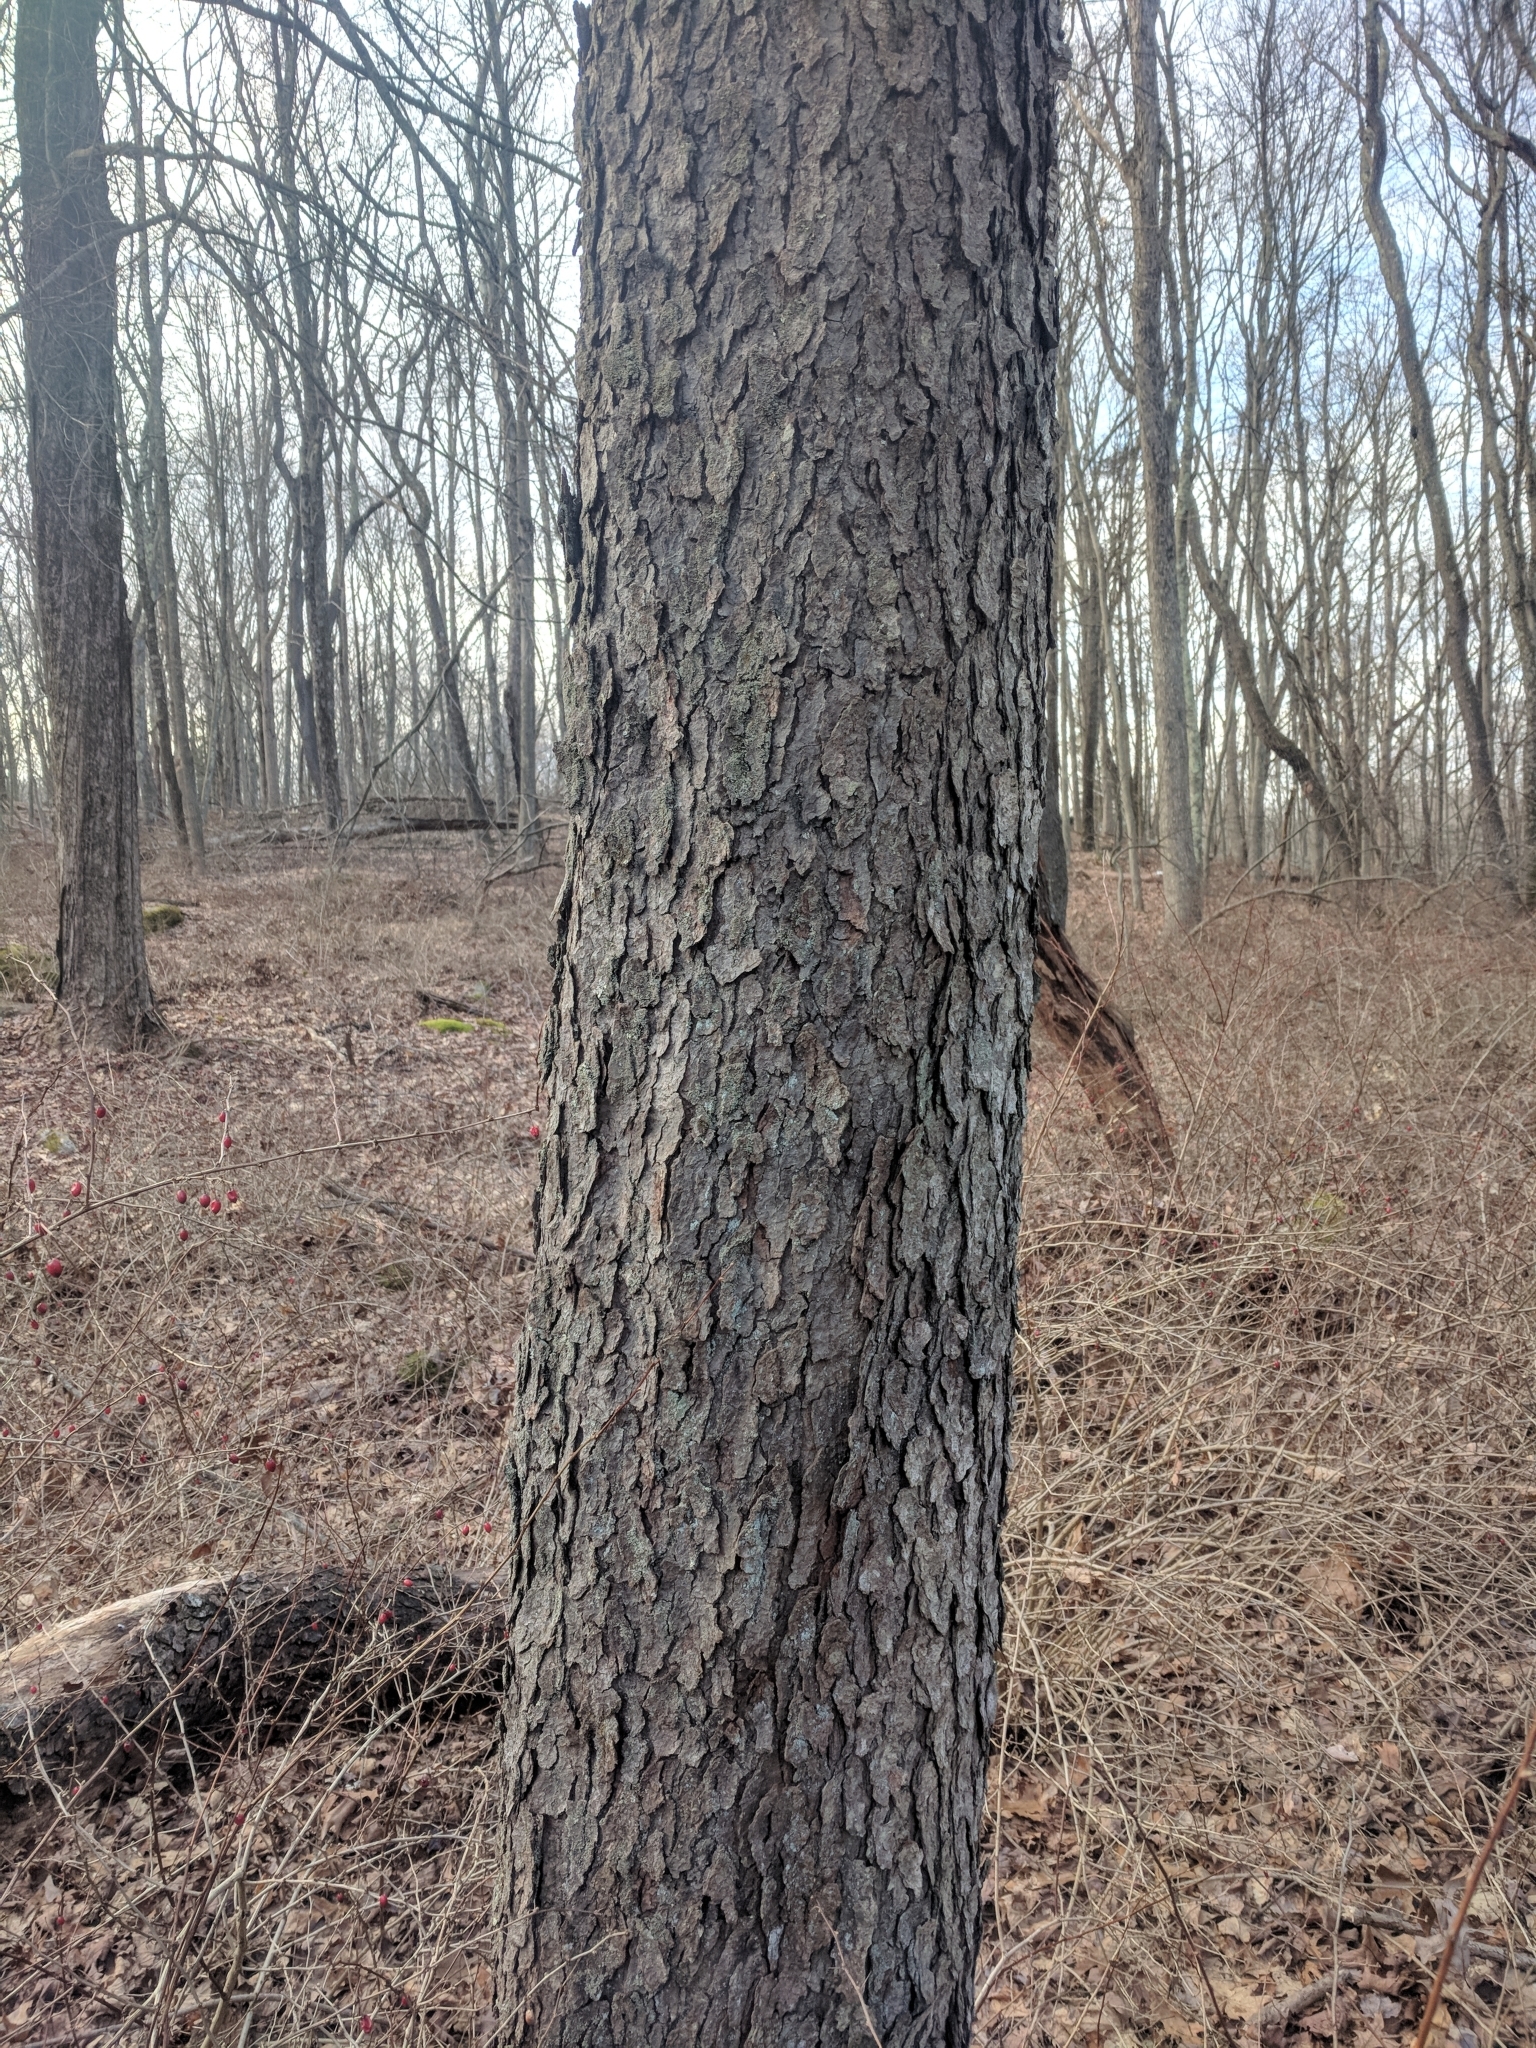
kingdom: Plantae
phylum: Tracheophyta
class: Magnoliopsida
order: Rosales
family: Rosaceae
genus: Prunus
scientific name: Prunus serotina
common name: Black cherry
